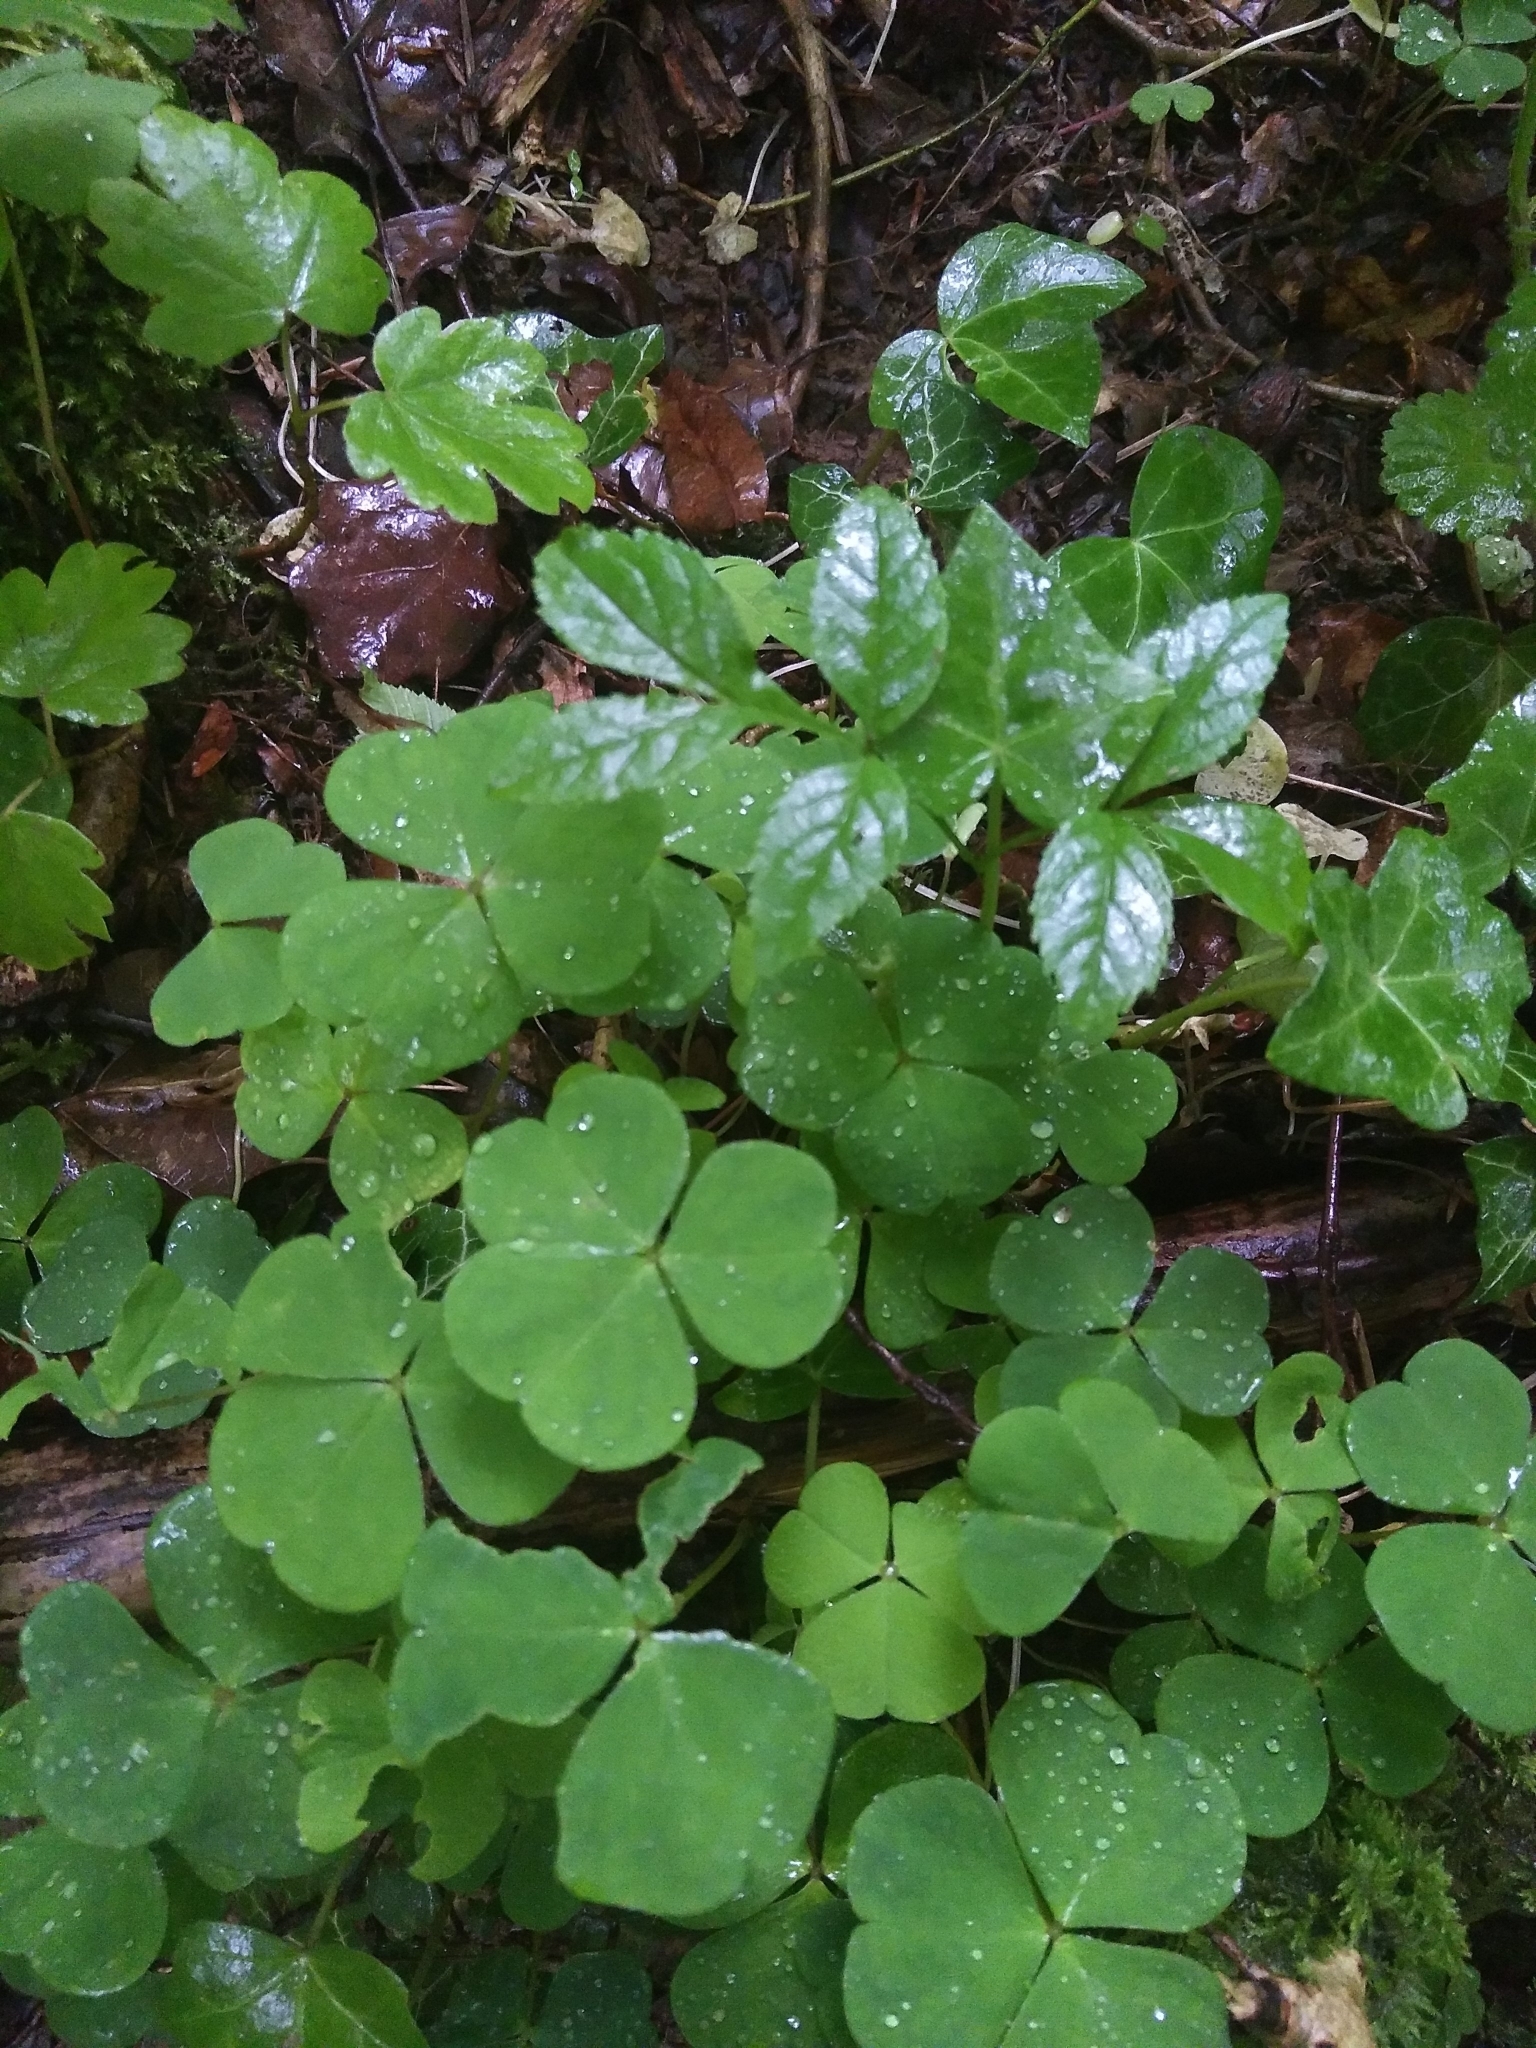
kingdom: Plantae
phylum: Tracheophyta
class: Magnoliopsida
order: Oxalidales
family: Oxalidaceae
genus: Oxalis
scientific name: Oxalis acetosella
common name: Wood-sorrel
